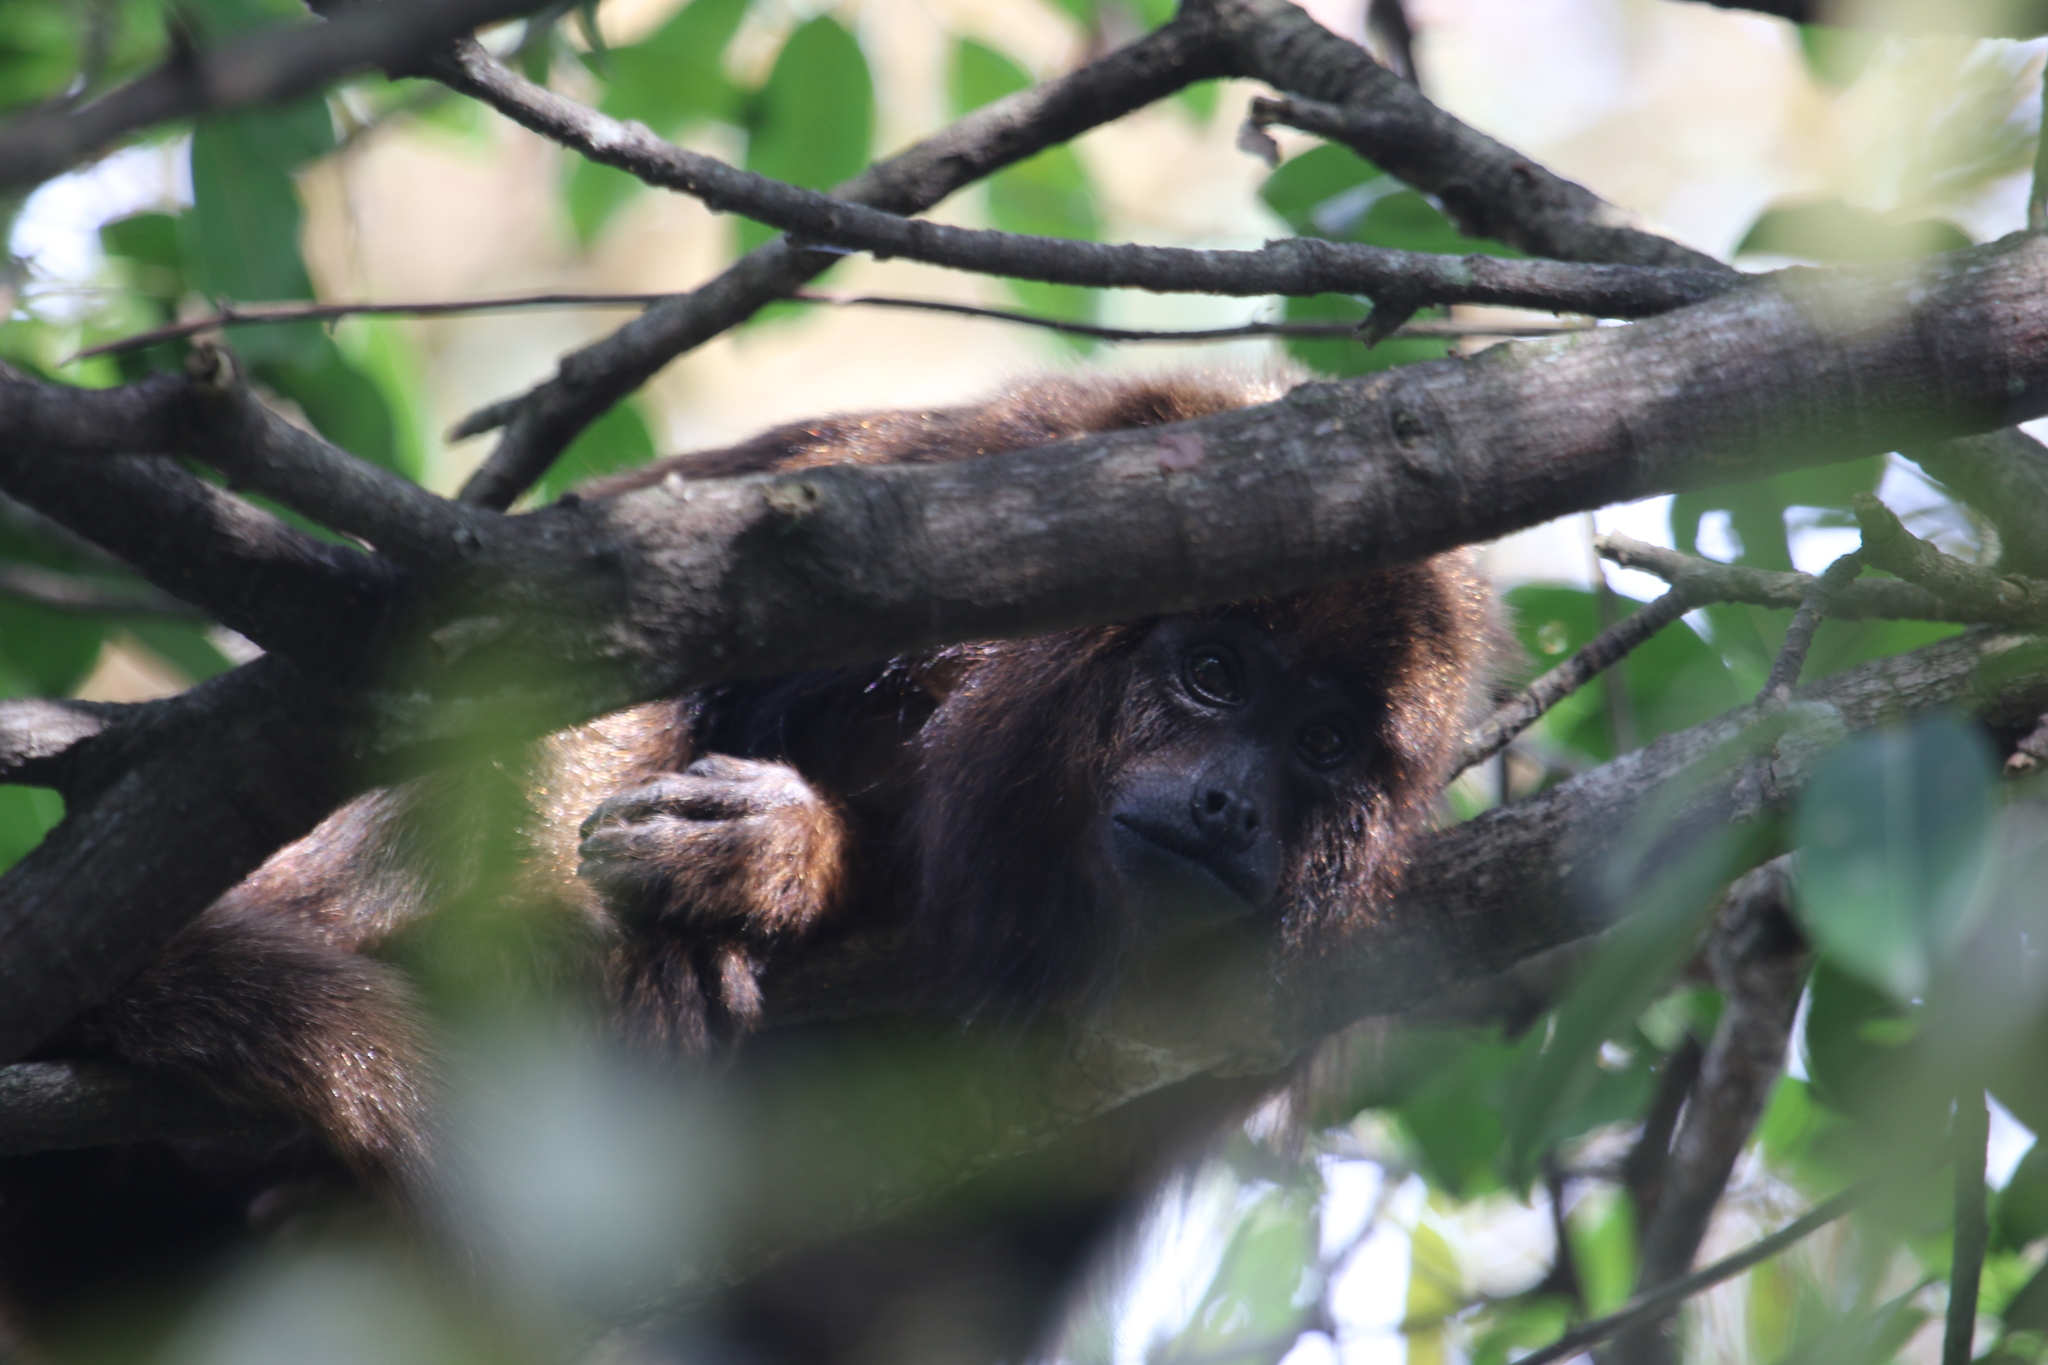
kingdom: Animalia
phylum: Chordata
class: Mammalia
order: Primates
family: Atelidae
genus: Alouatta
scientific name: Alouatta guariba
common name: Brown howler monkey
